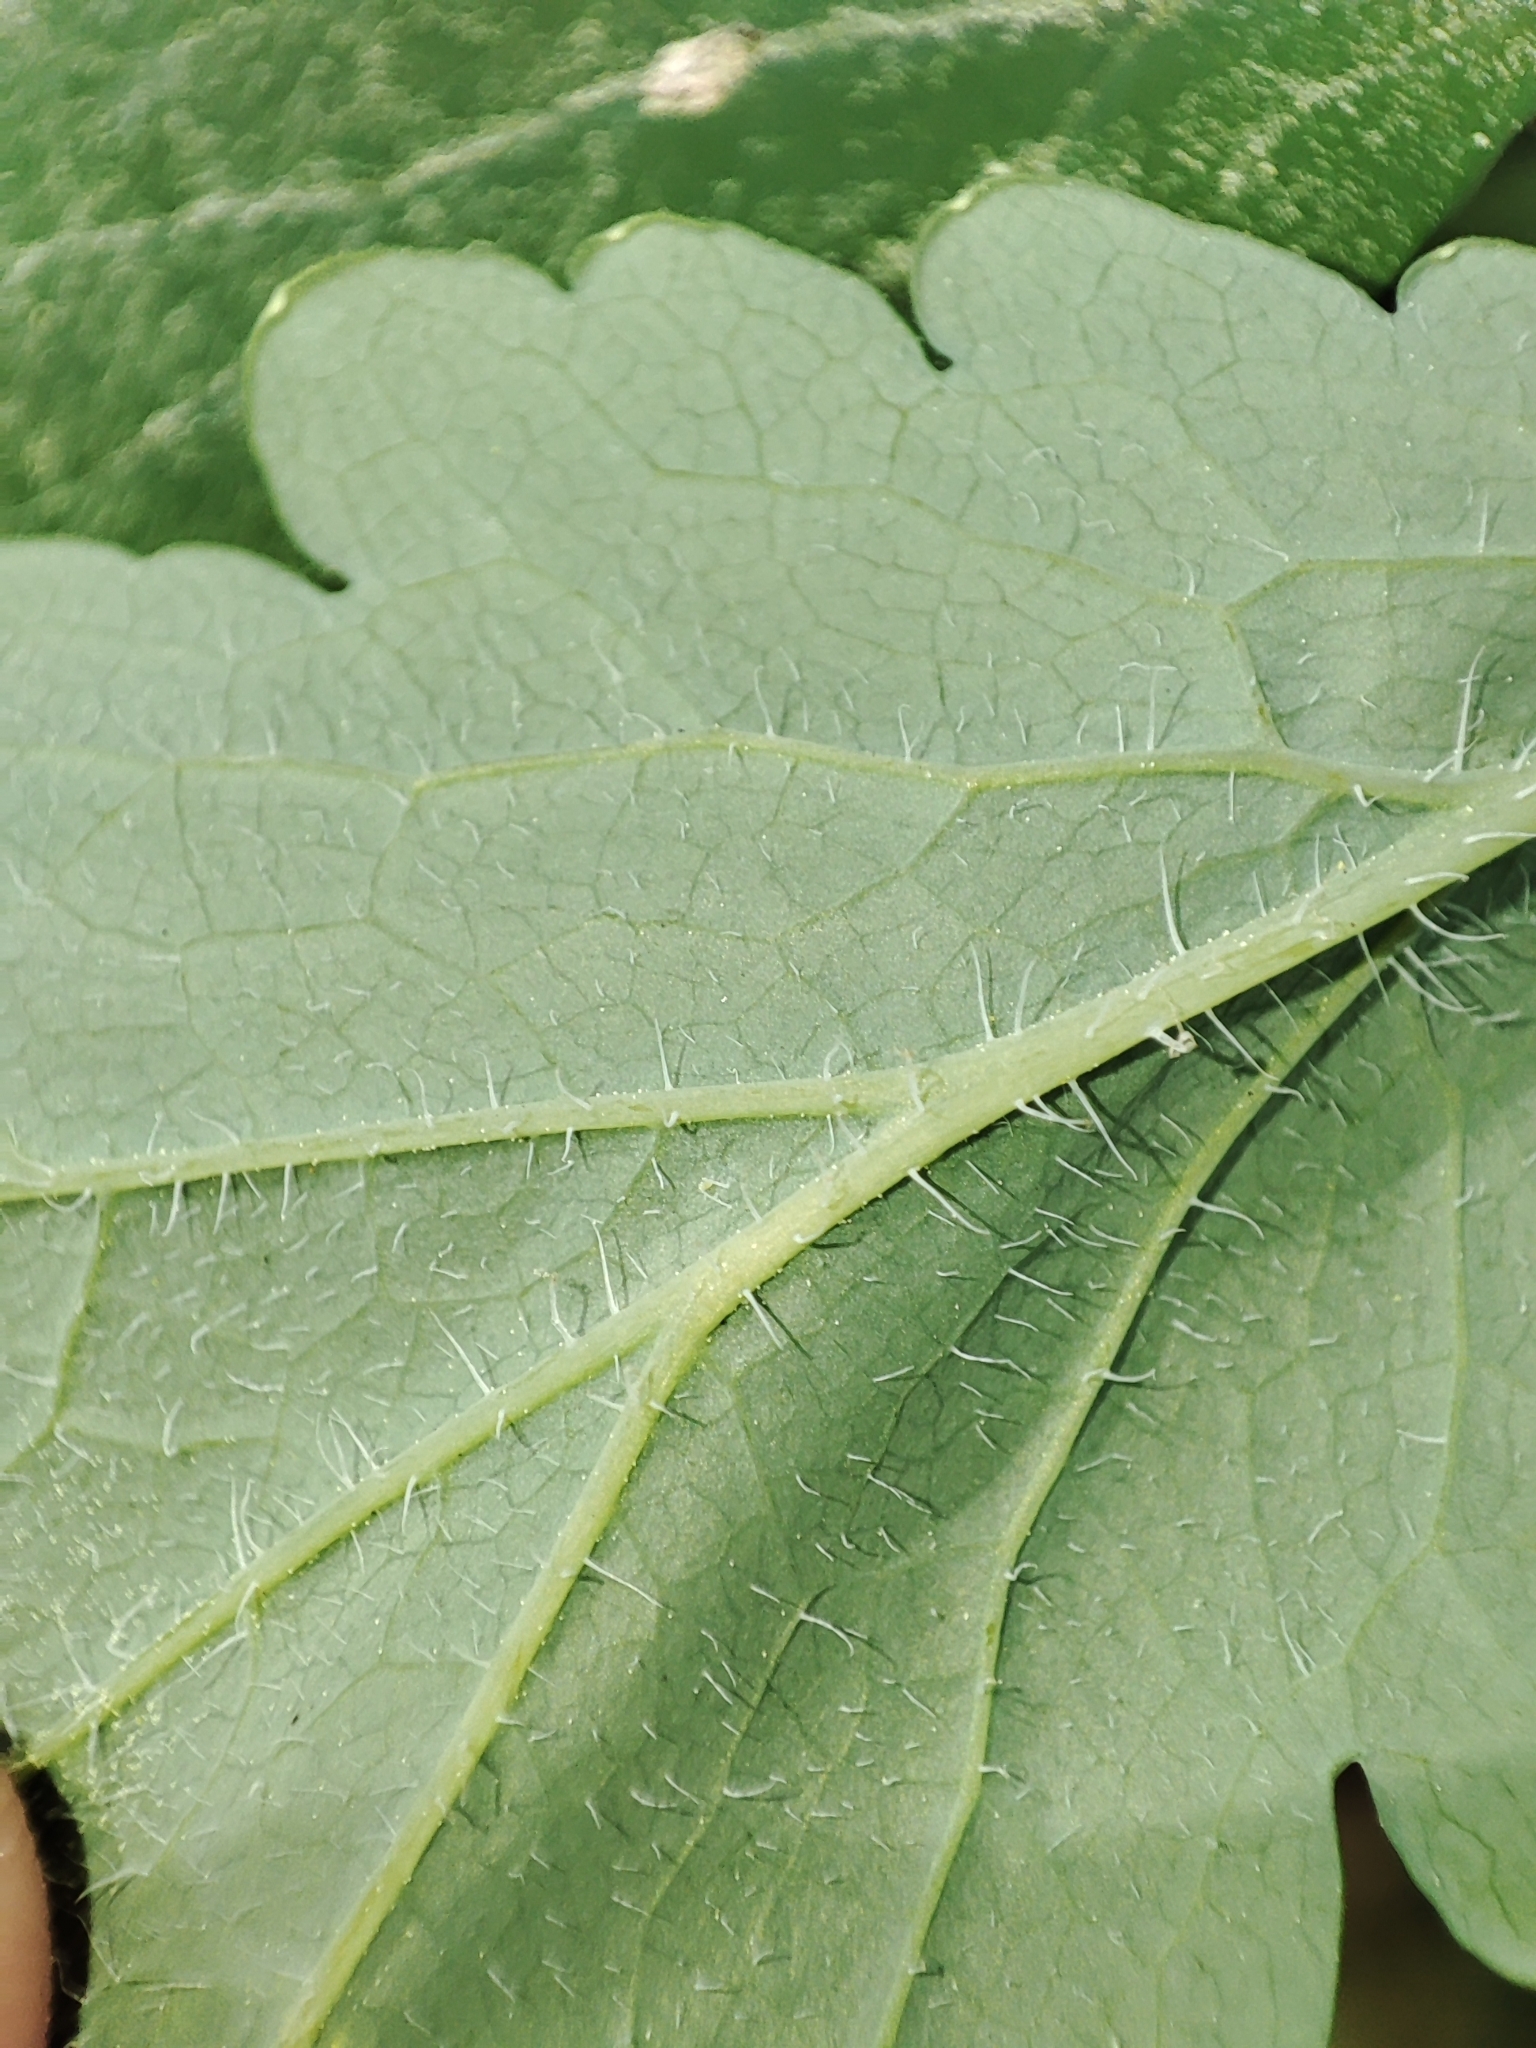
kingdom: Plantae
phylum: Tracheophyta
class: Magnoliopsida
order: Ranunculales
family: Papaveraceae
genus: Chelidonium
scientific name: Chelidonium majus
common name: Greater celandine
